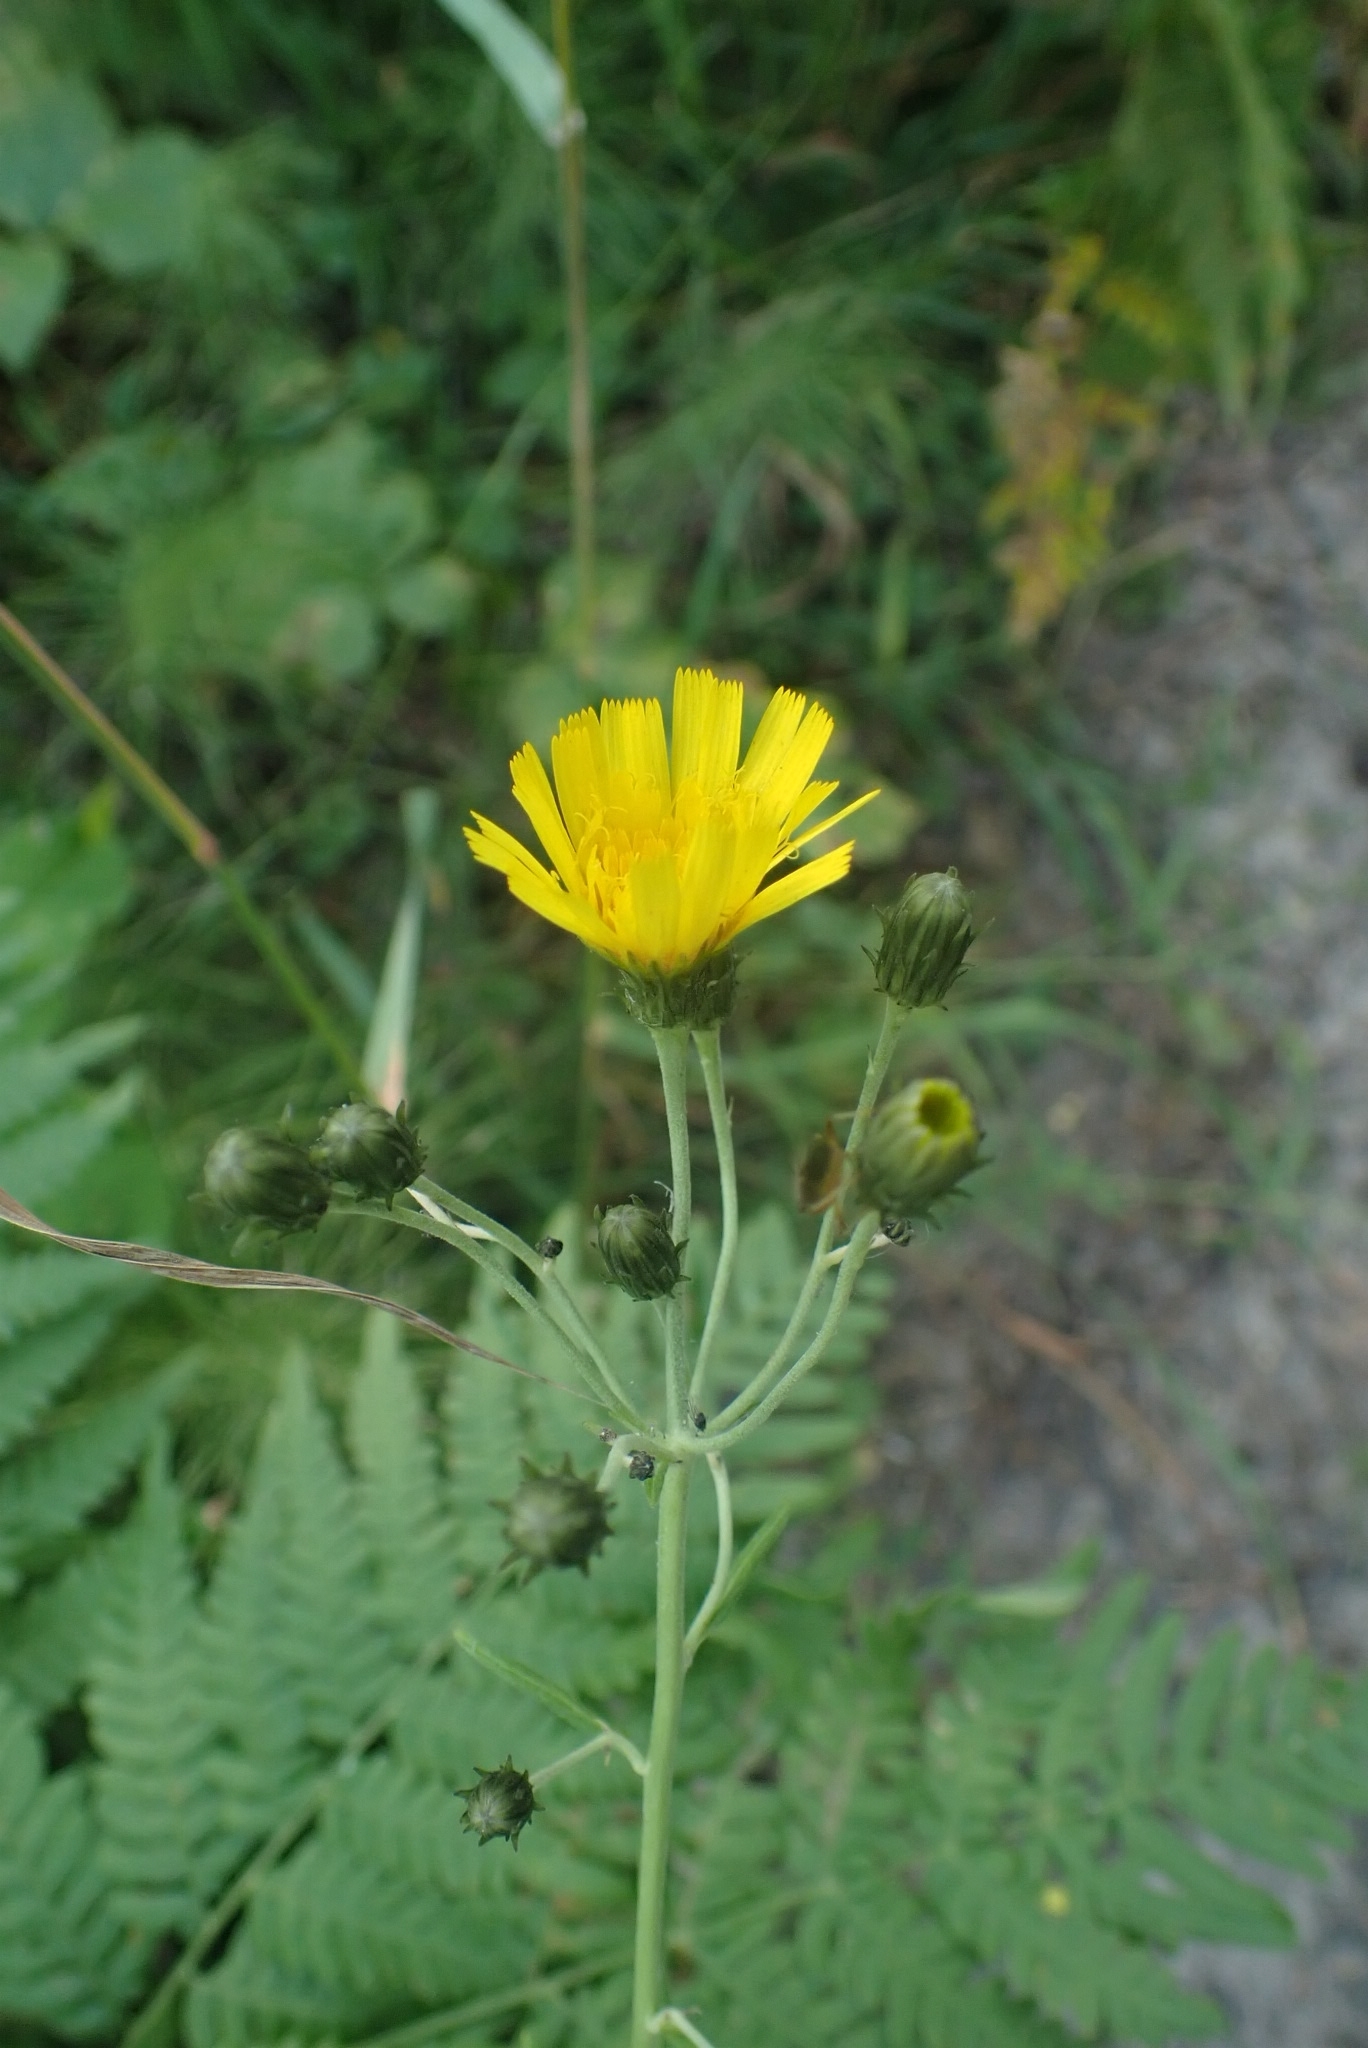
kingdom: Plantae
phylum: Tracheophyta
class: Magnoliopsida
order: Asterales
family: Asteraceae
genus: Hieracium
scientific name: Hieracium umbellatum
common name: Northern hawkweed
